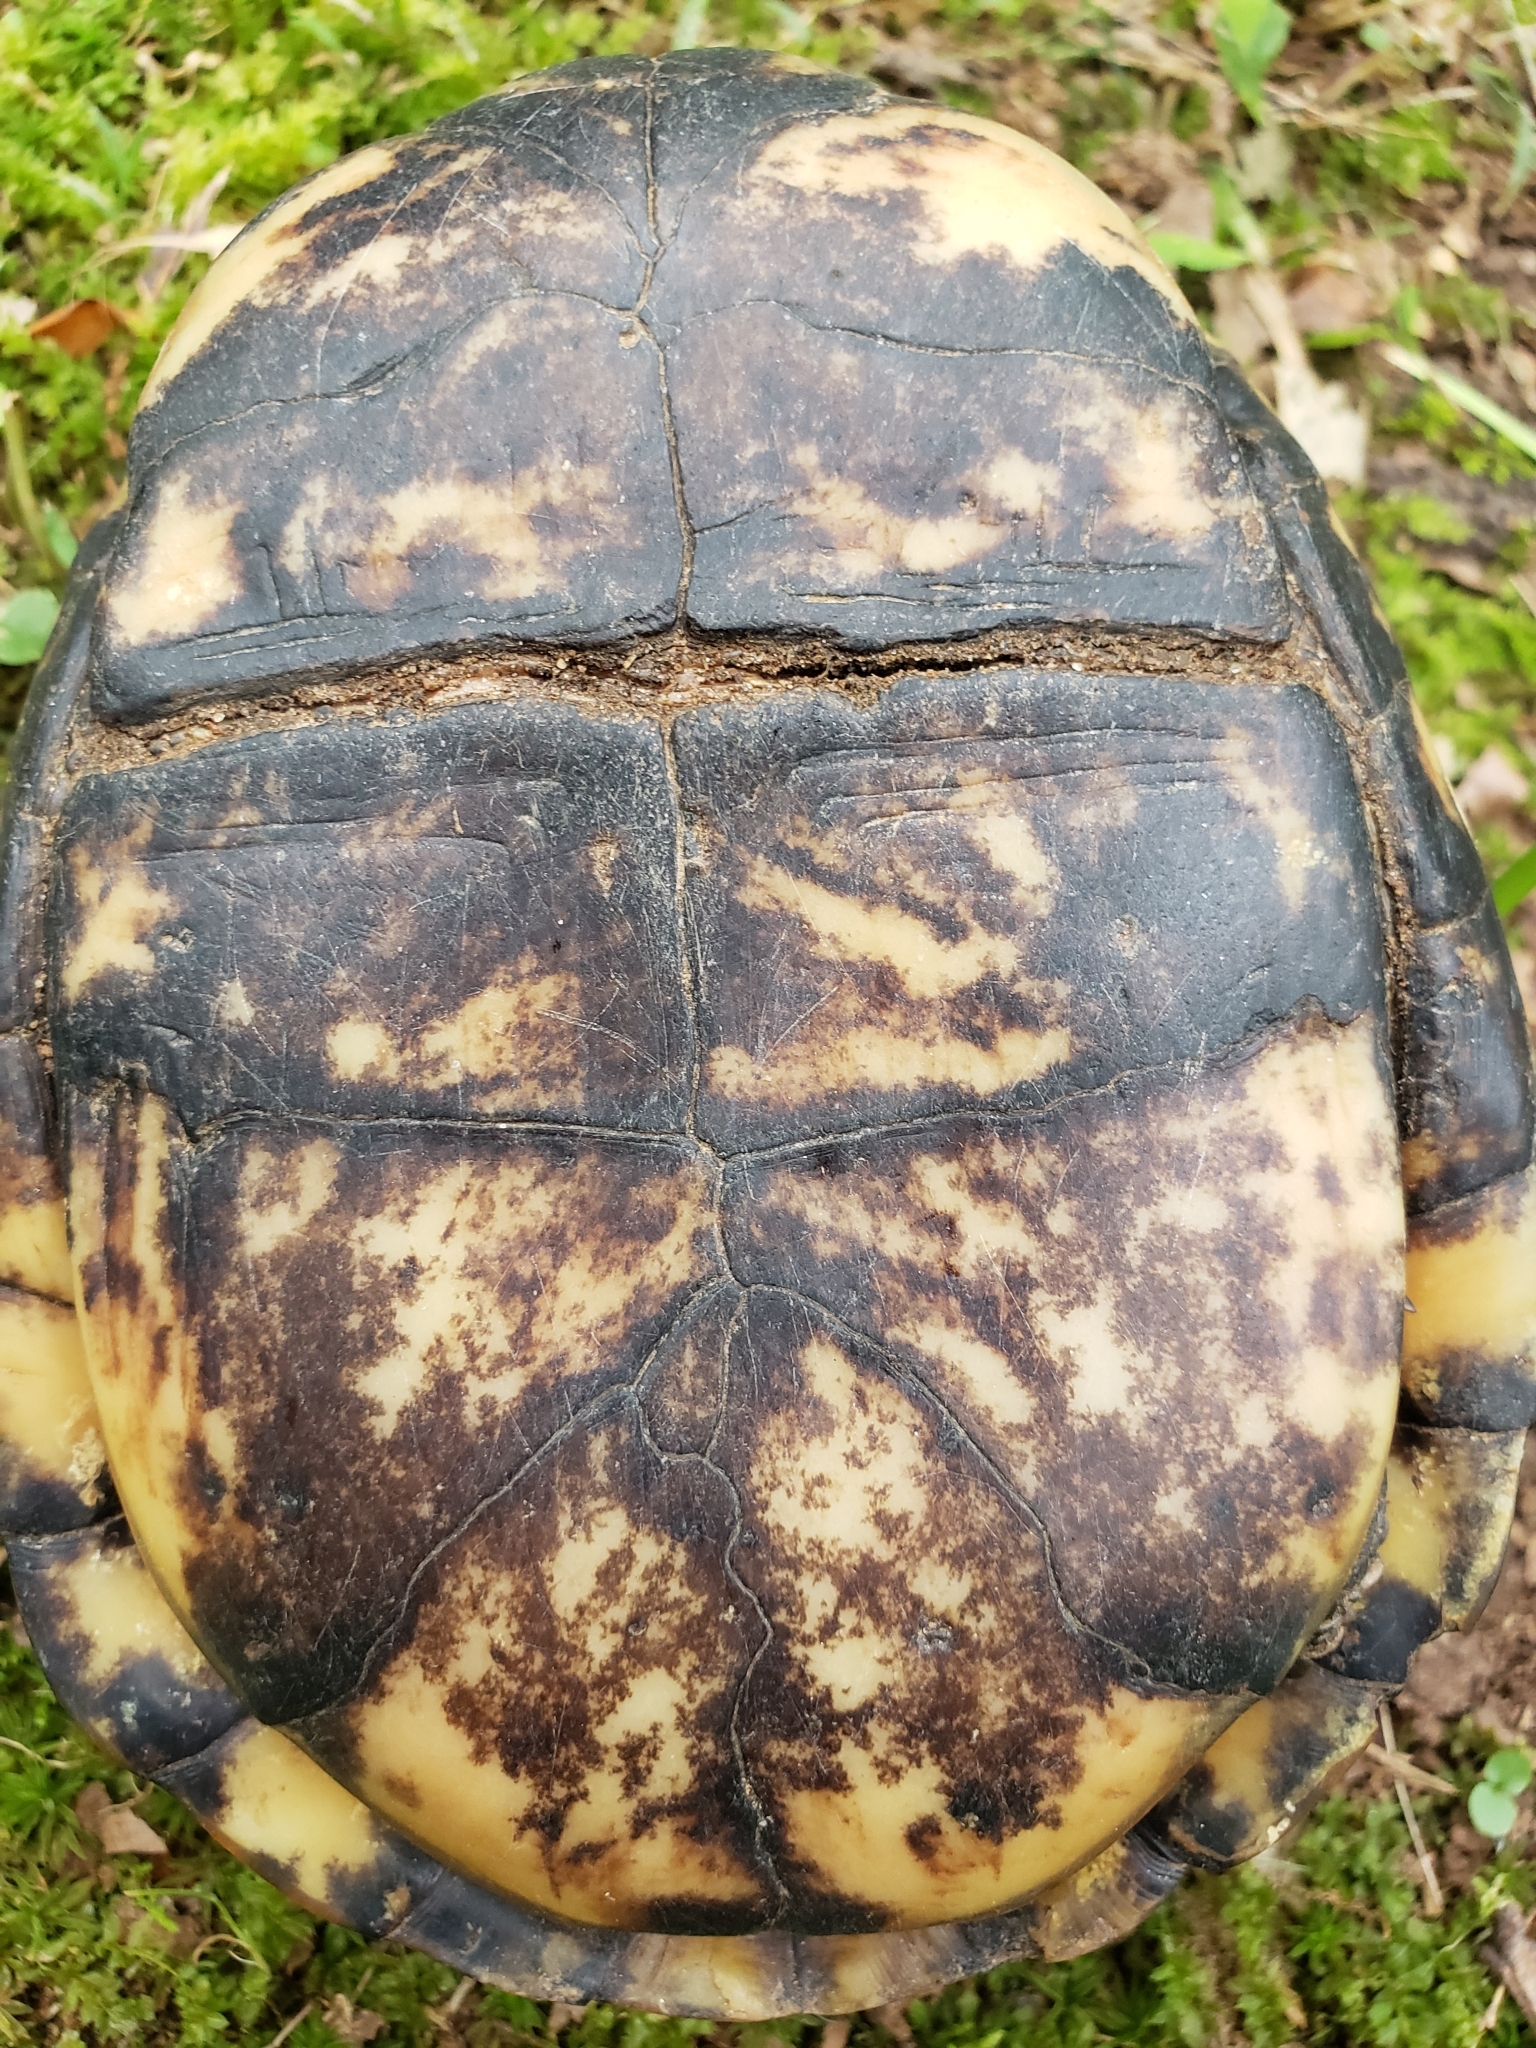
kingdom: Animalia
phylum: Chordata
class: Testudines
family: Emydidae
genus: Terrapene
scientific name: Terrapene carolina
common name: Common box turtle
